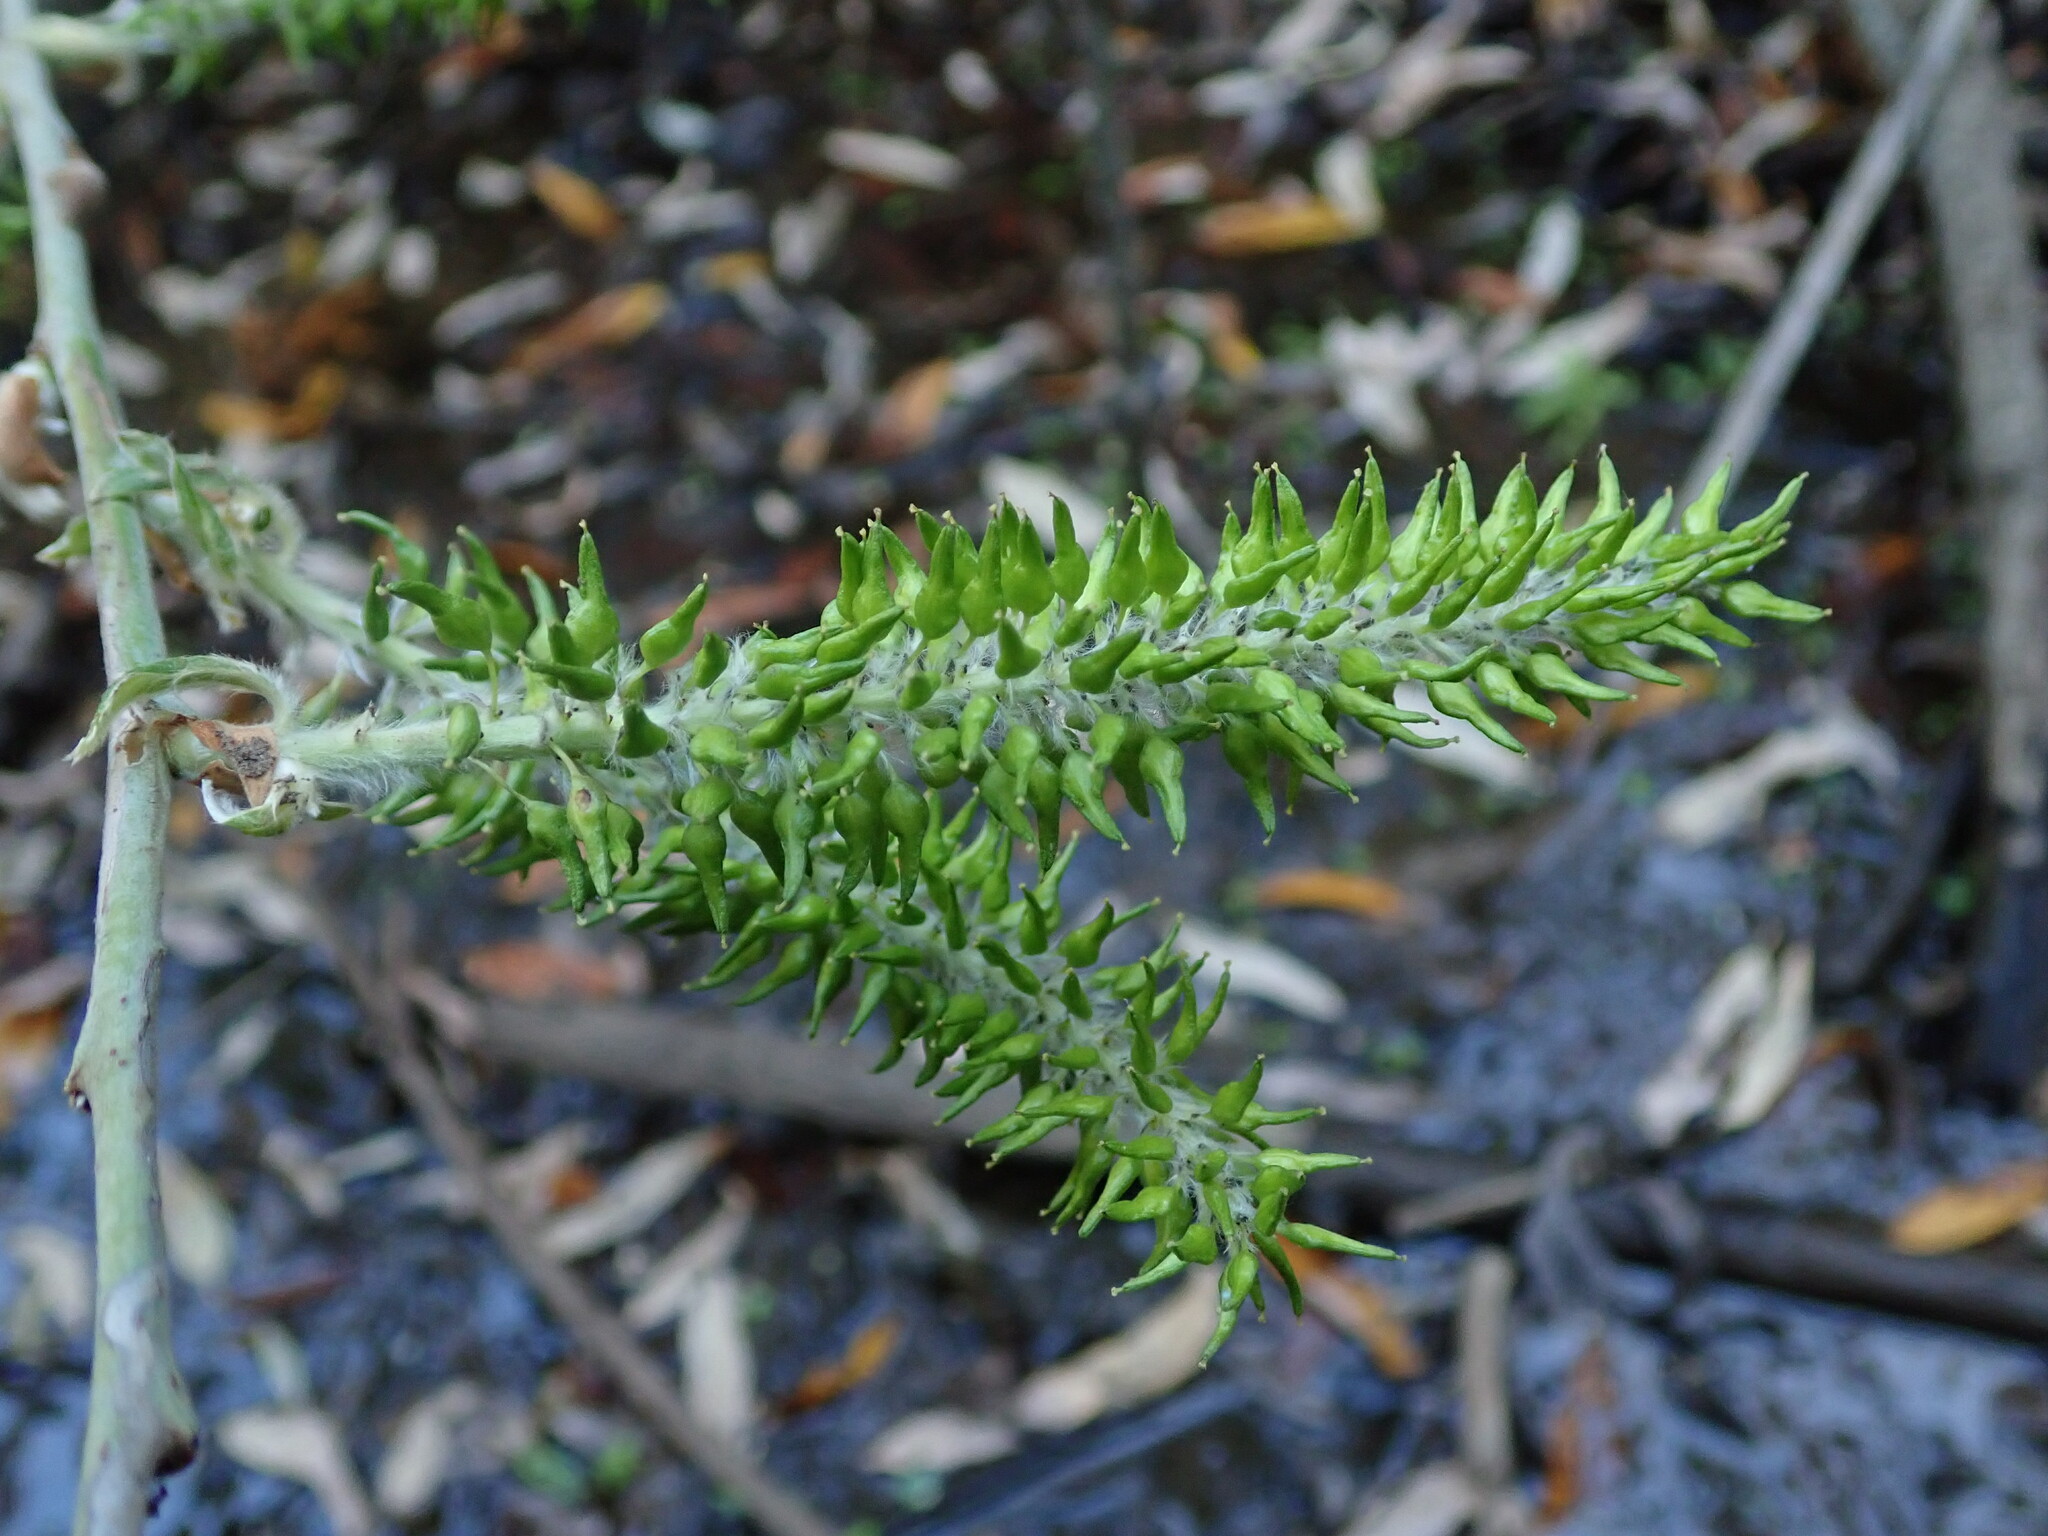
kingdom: Plantae
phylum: Tracheophyta
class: Magnoliopsida
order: Malpighiales
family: Salicaceae
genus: Salix
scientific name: Salix pedicellata
